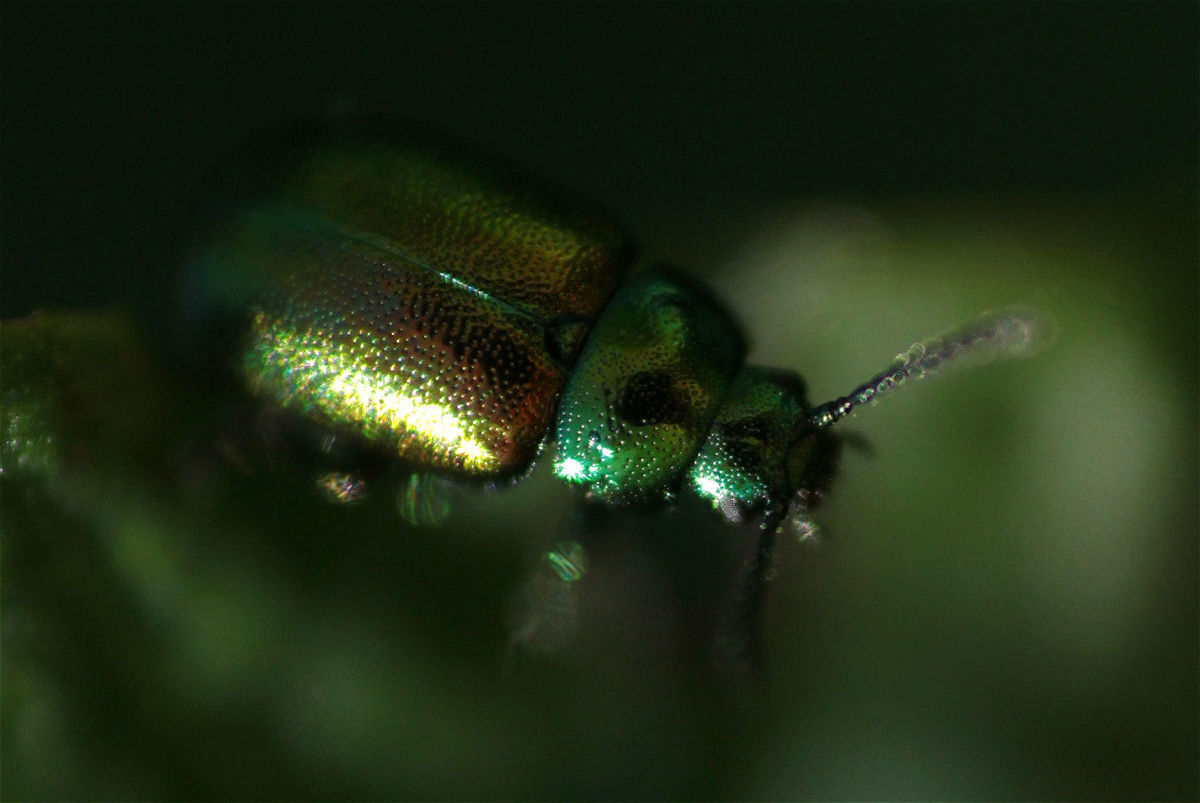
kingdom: Animalia
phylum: Arthropoda
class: Insecta
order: Coleoptera
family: Chrysomelidae
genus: Gastrophysa
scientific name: Gastrophysa viridula
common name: Green dock beetle
